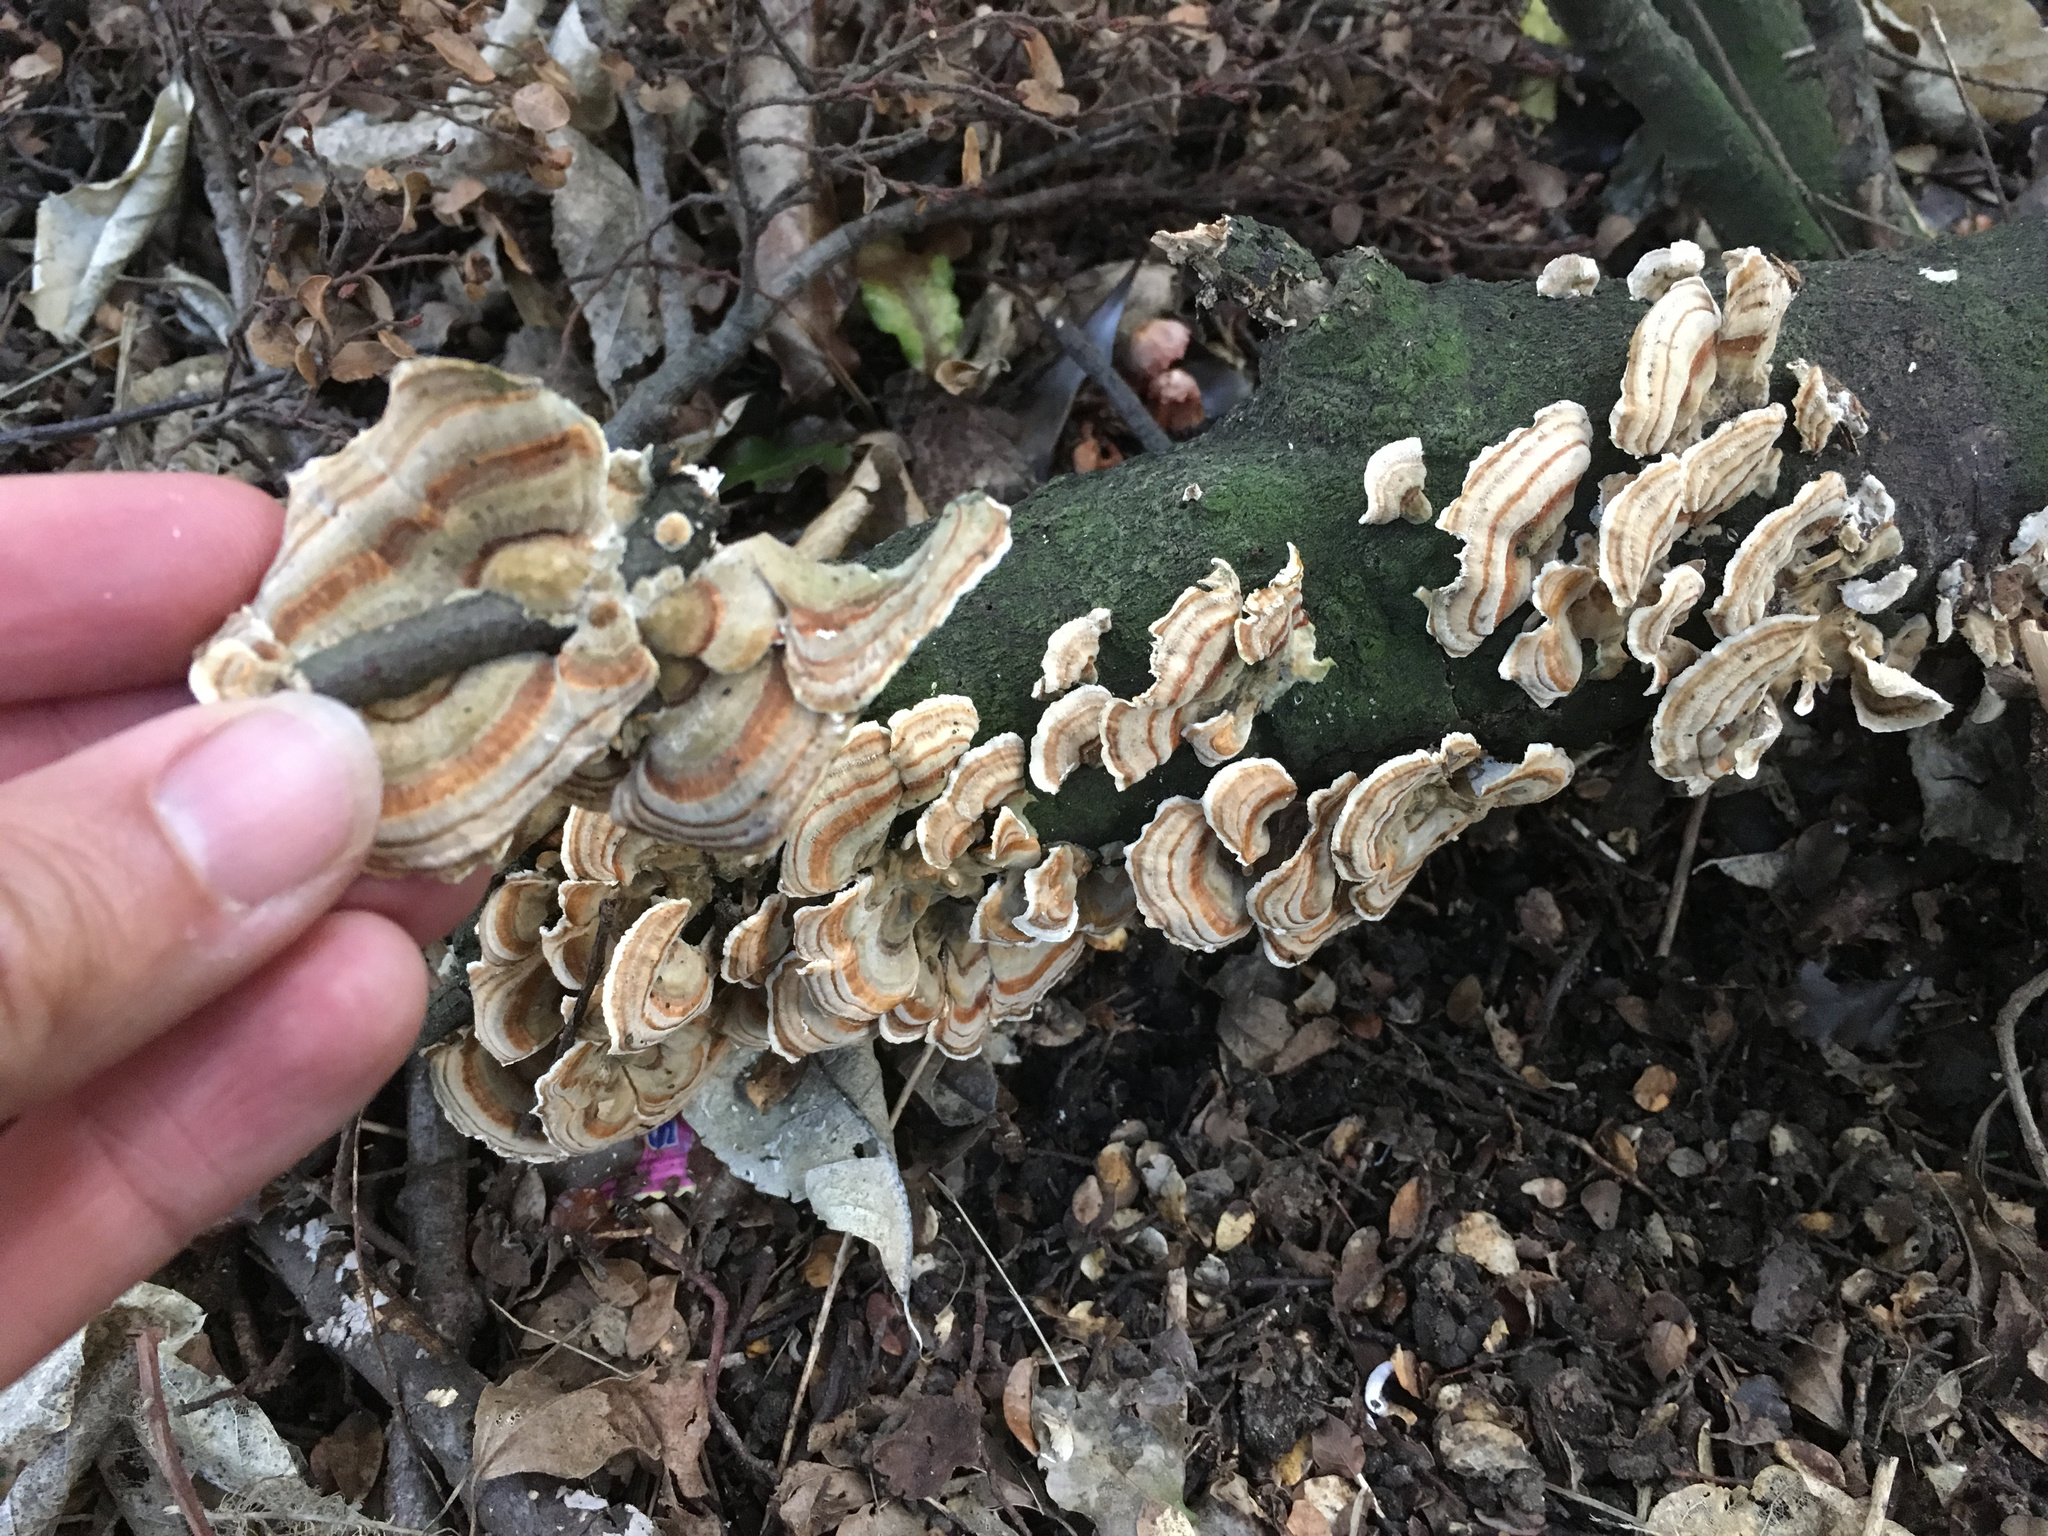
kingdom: Fungi
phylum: Basidiomycota
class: Agaricomycetes
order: Polyporales
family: Polyporaceae
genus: Trametes
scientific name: Trametes versicolor
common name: Turkeytail
